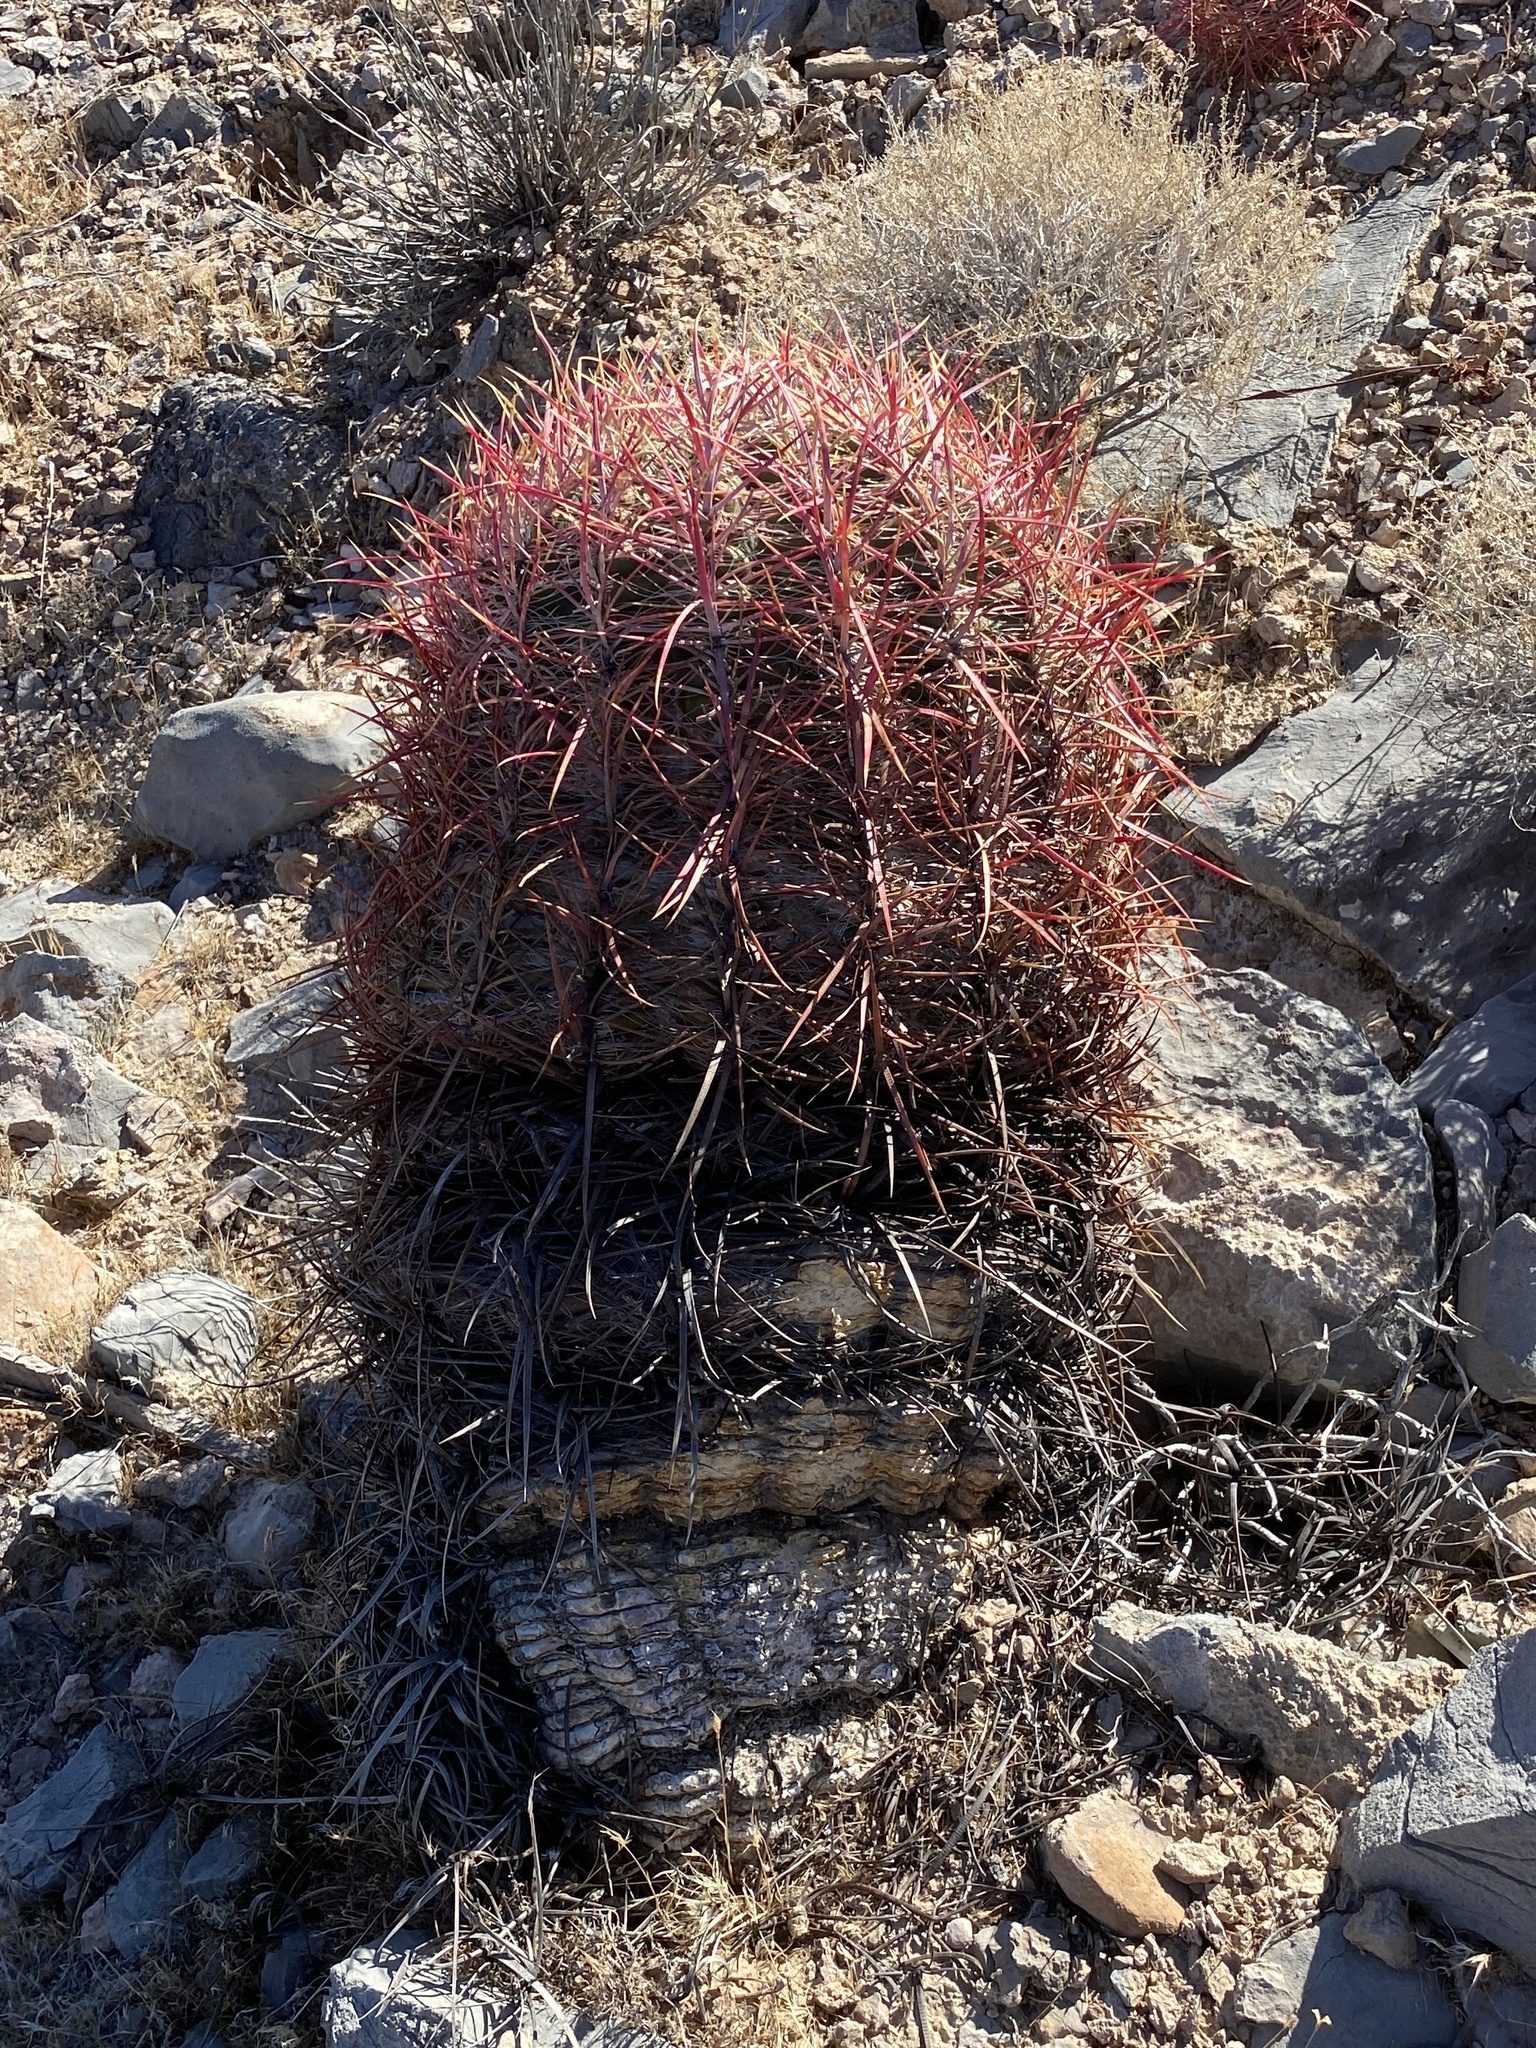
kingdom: Plantae
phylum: Tracheophyta
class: Magnoliopsida
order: Caryophyllales
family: Cactaceae
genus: Ferocactus
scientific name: Ferocactus cylindraceus
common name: California barrel cactus
